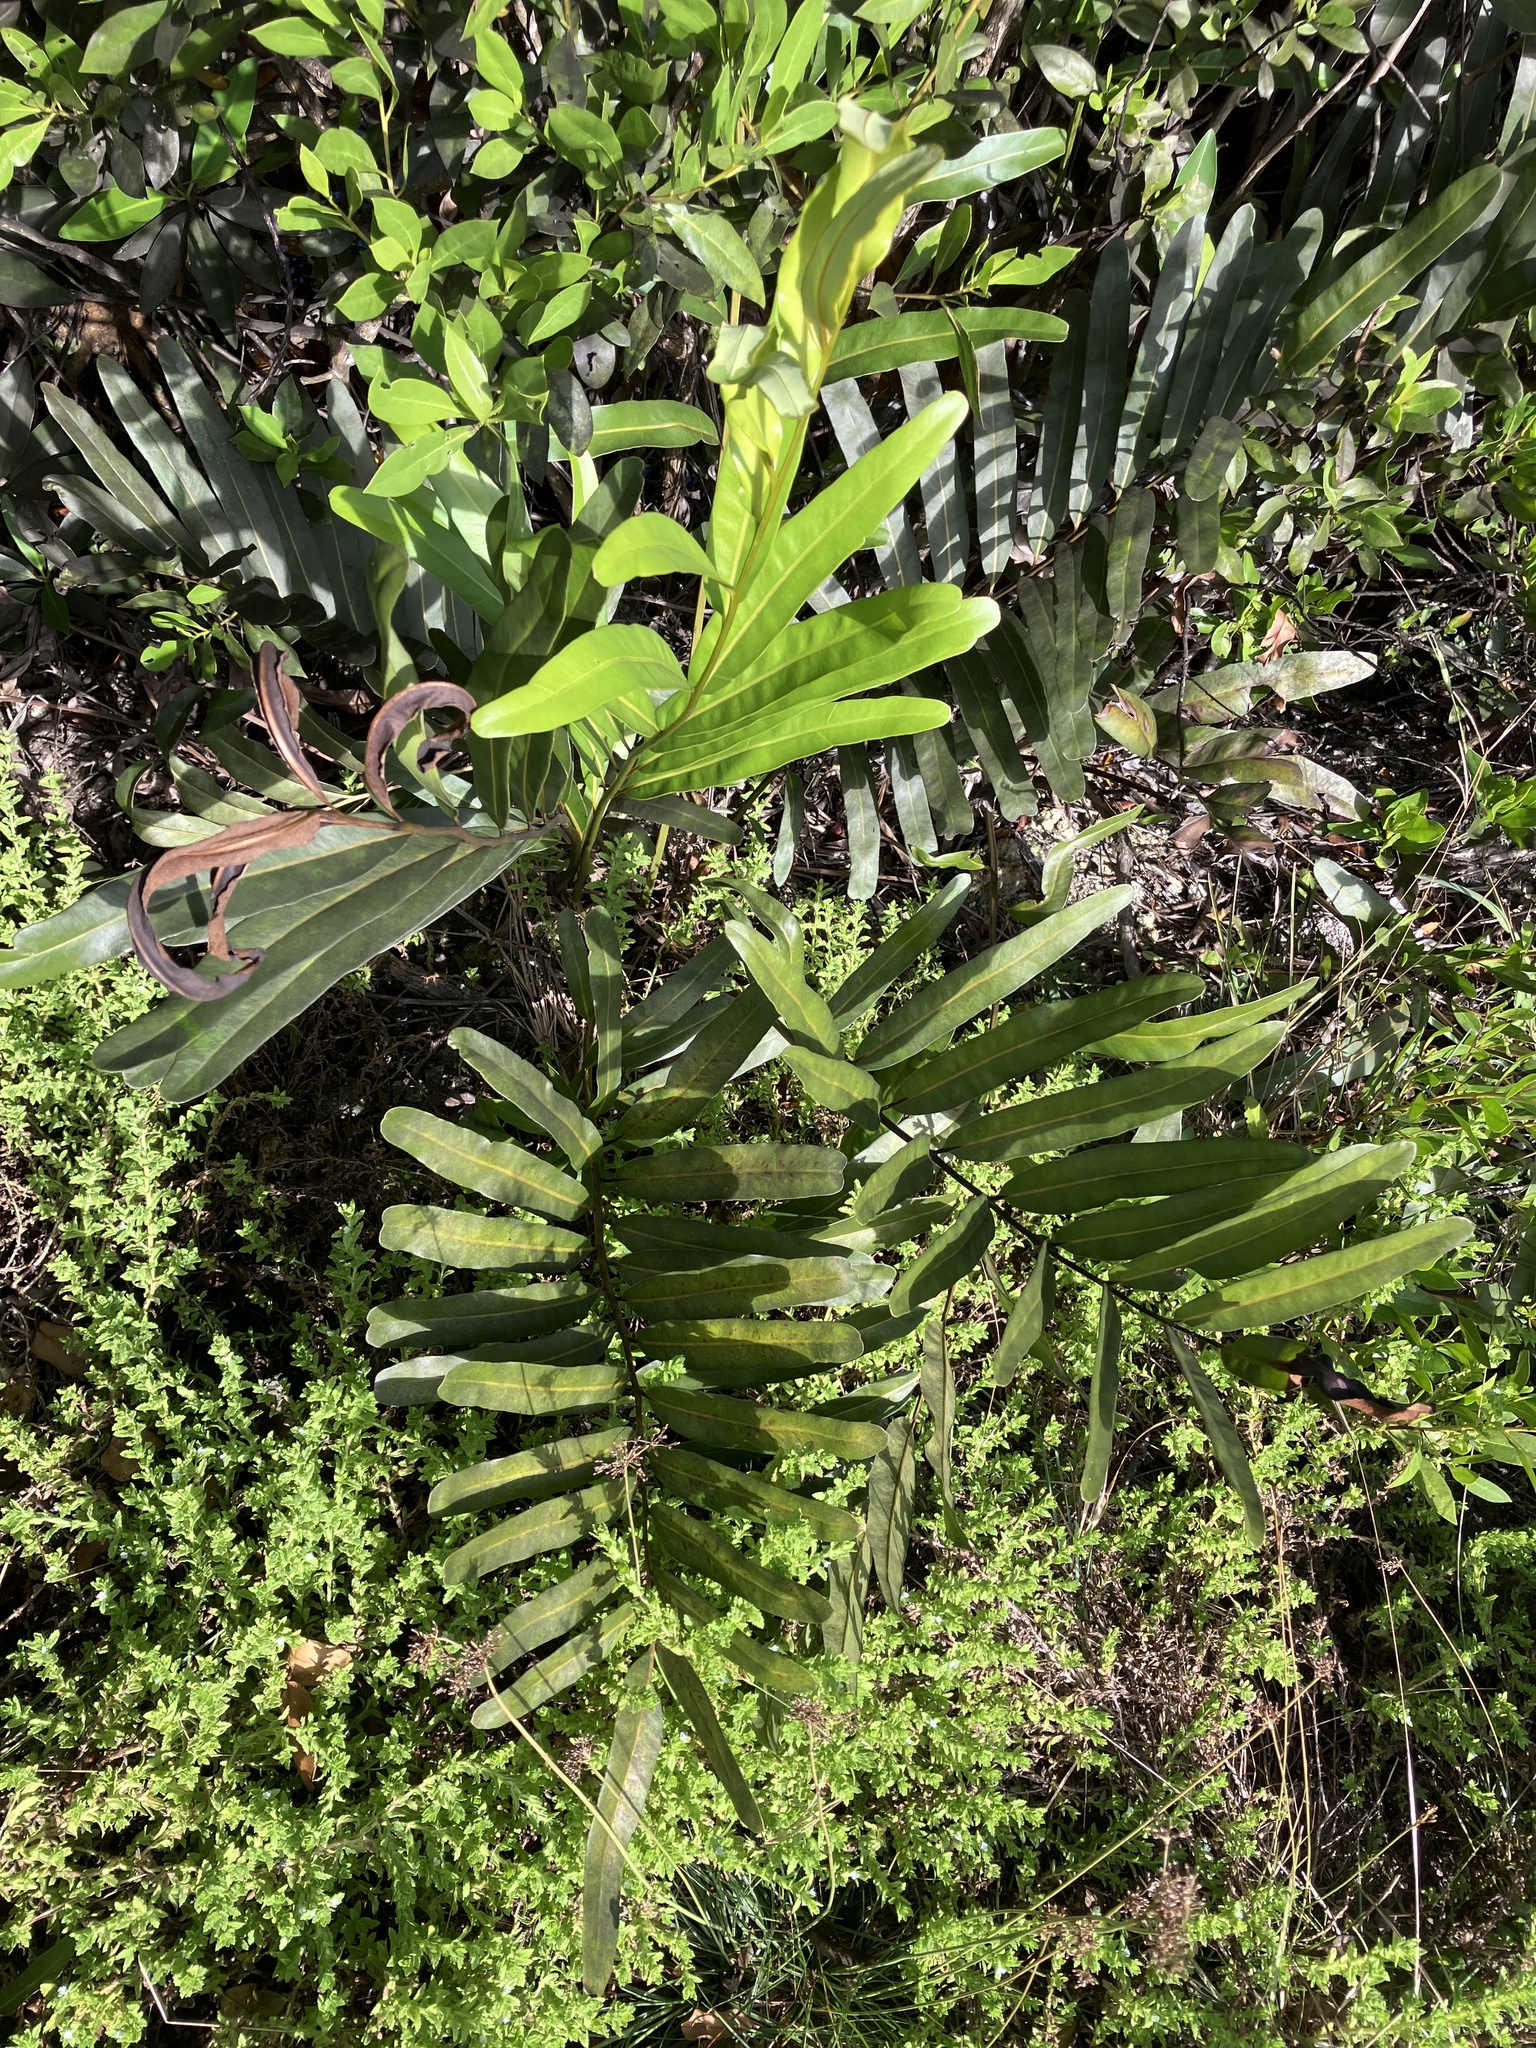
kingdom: Plantae
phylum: Tracheophyta
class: Polypodiopsida
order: Polypodiales
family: Pteridaceae
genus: Acrostichum
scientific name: Acrostichum aureum
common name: Leather fern
